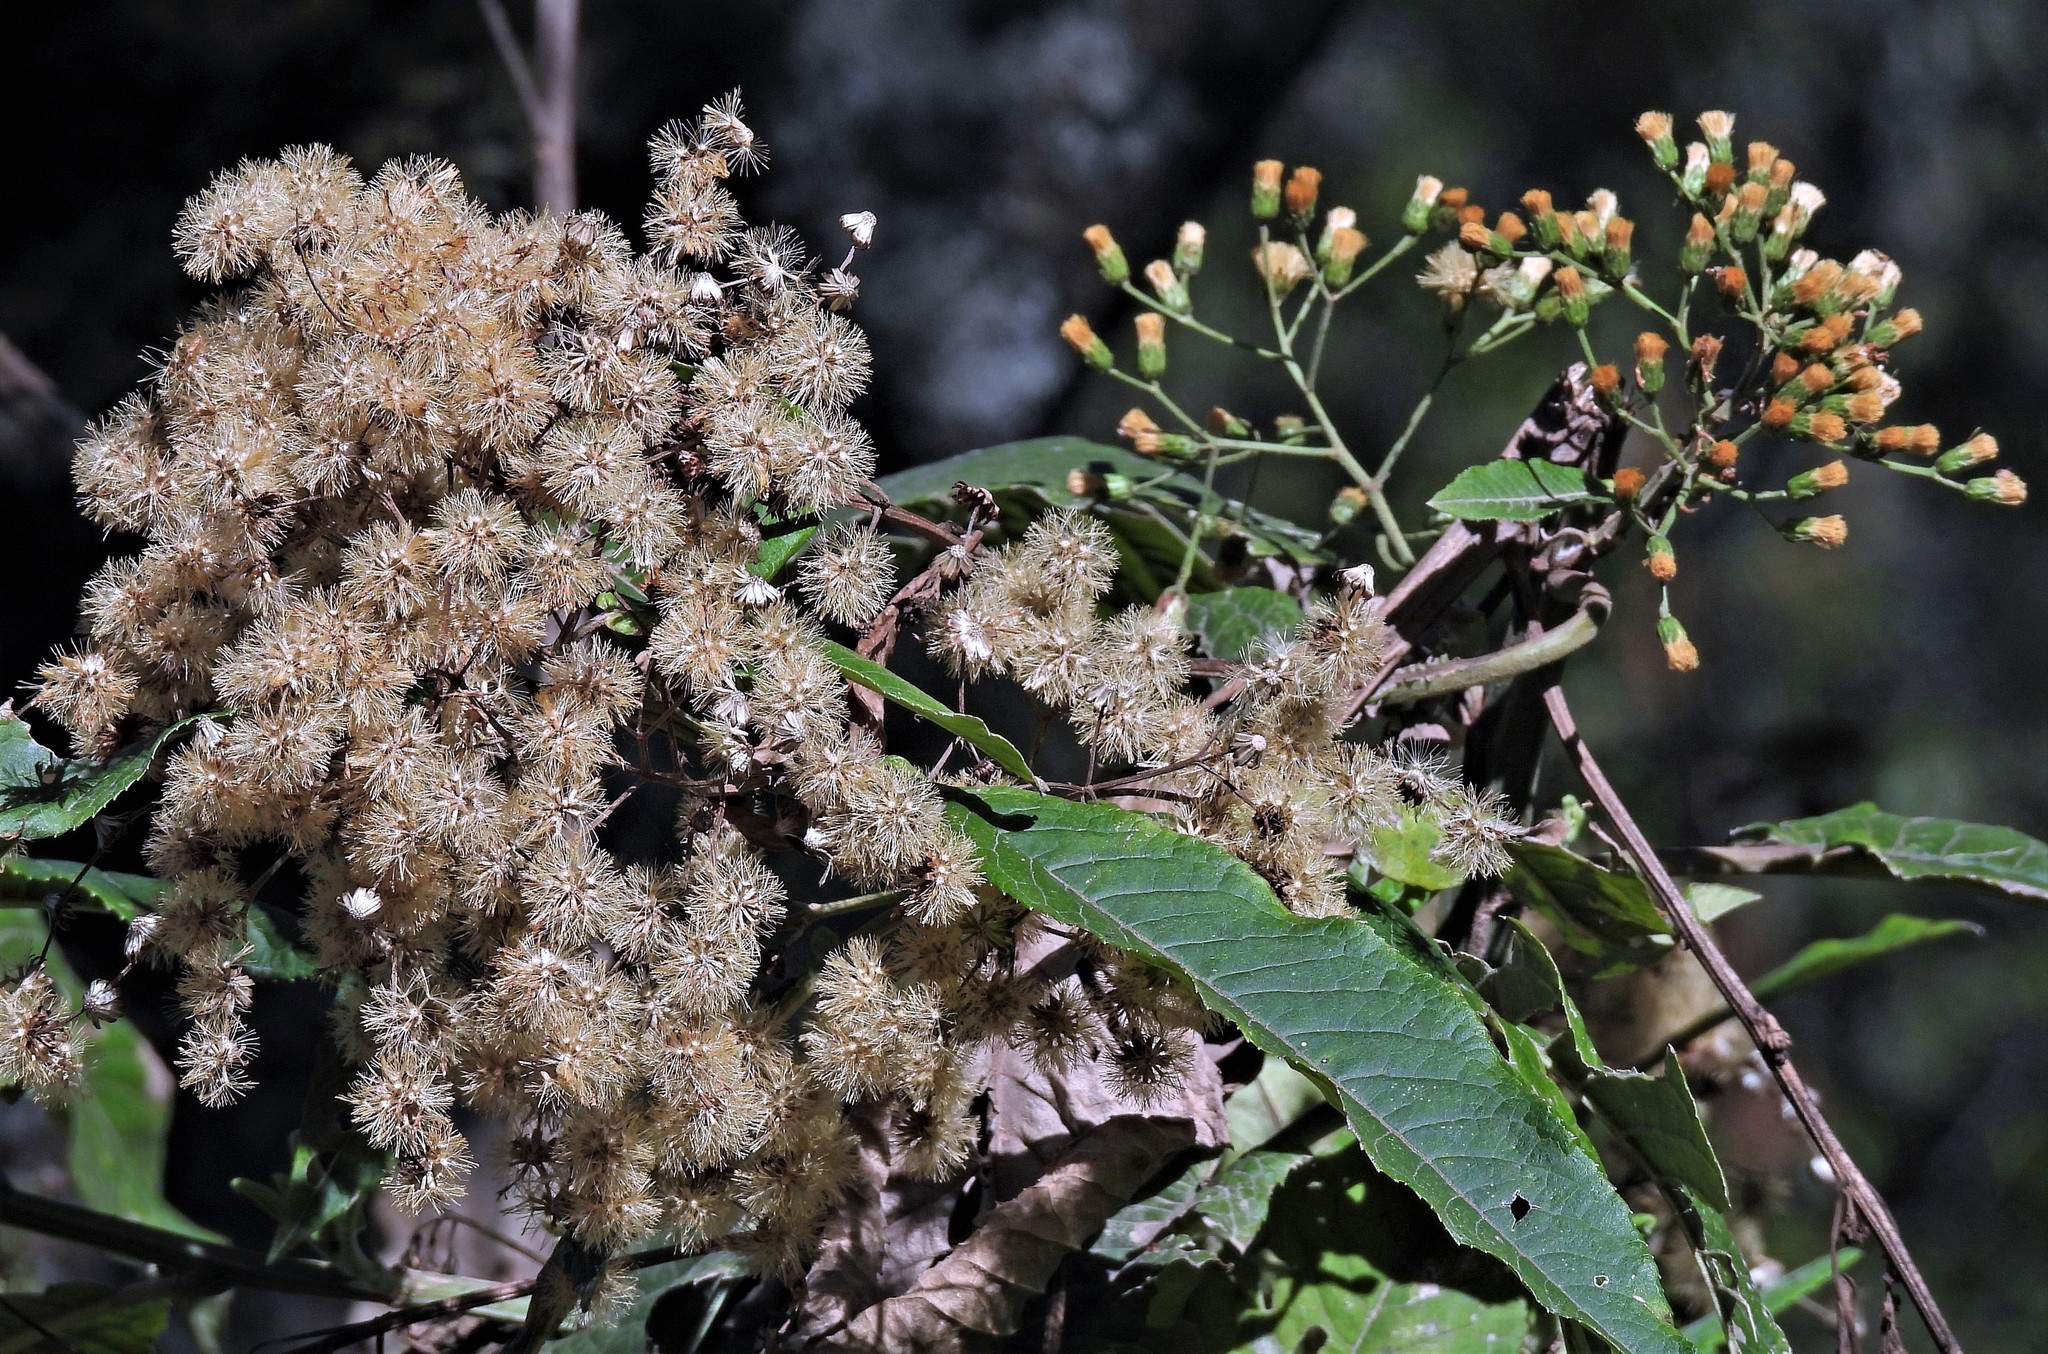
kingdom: Plantae
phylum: Tracheophyta
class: Magnoliopsida
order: Asterales
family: Asteraceae
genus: Vernonanthura
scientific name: Vernonanthura pinguis
